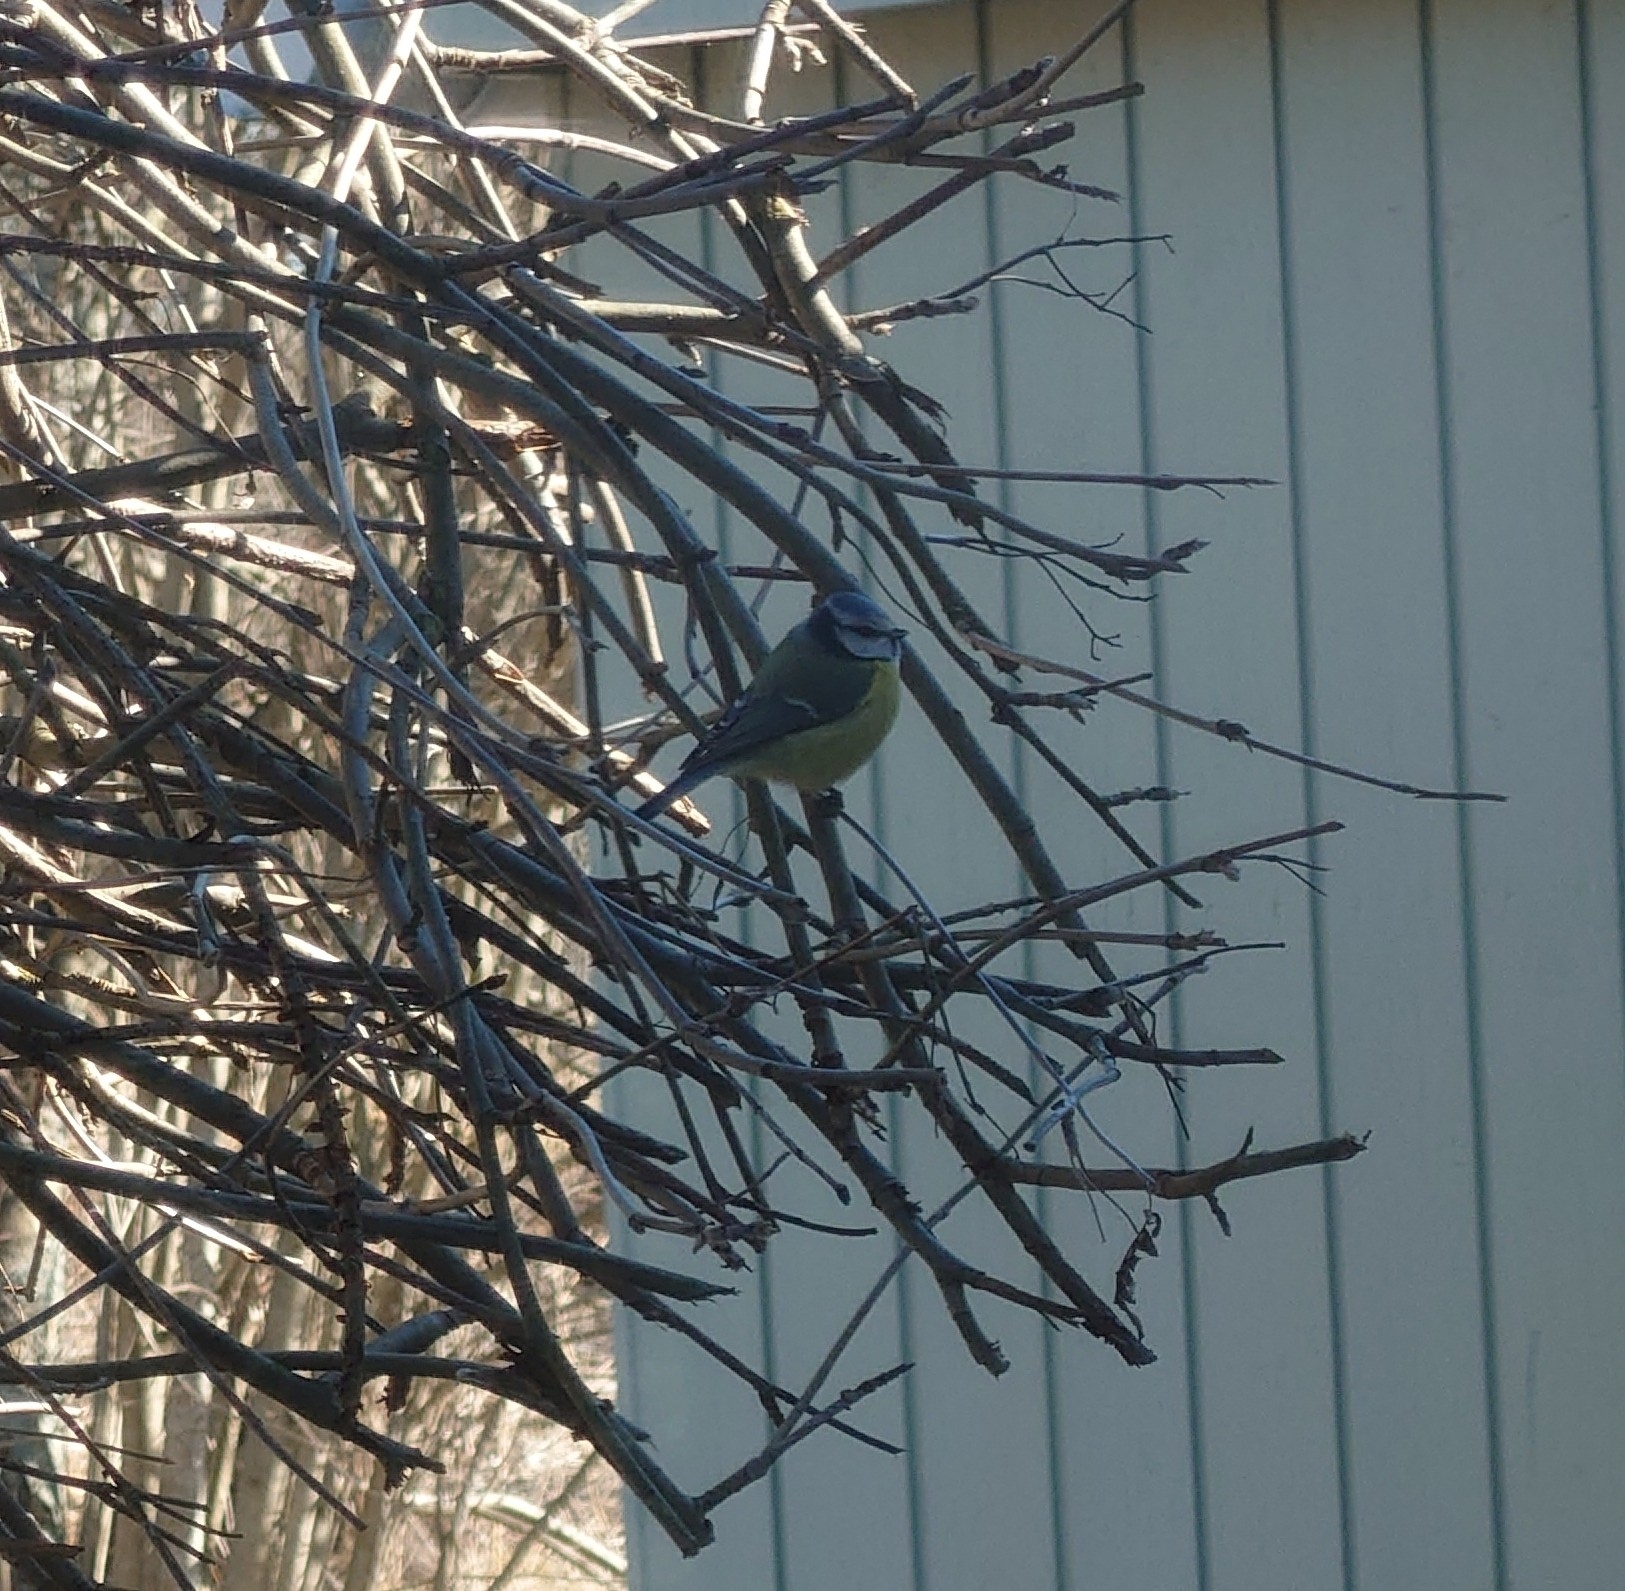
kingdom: Animalia
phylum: Chordata
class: Aves
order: Passeriformes
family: Paridae
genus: Cyanistes
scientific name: Cyanistes caeruleus
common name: Eurasian blue tit
